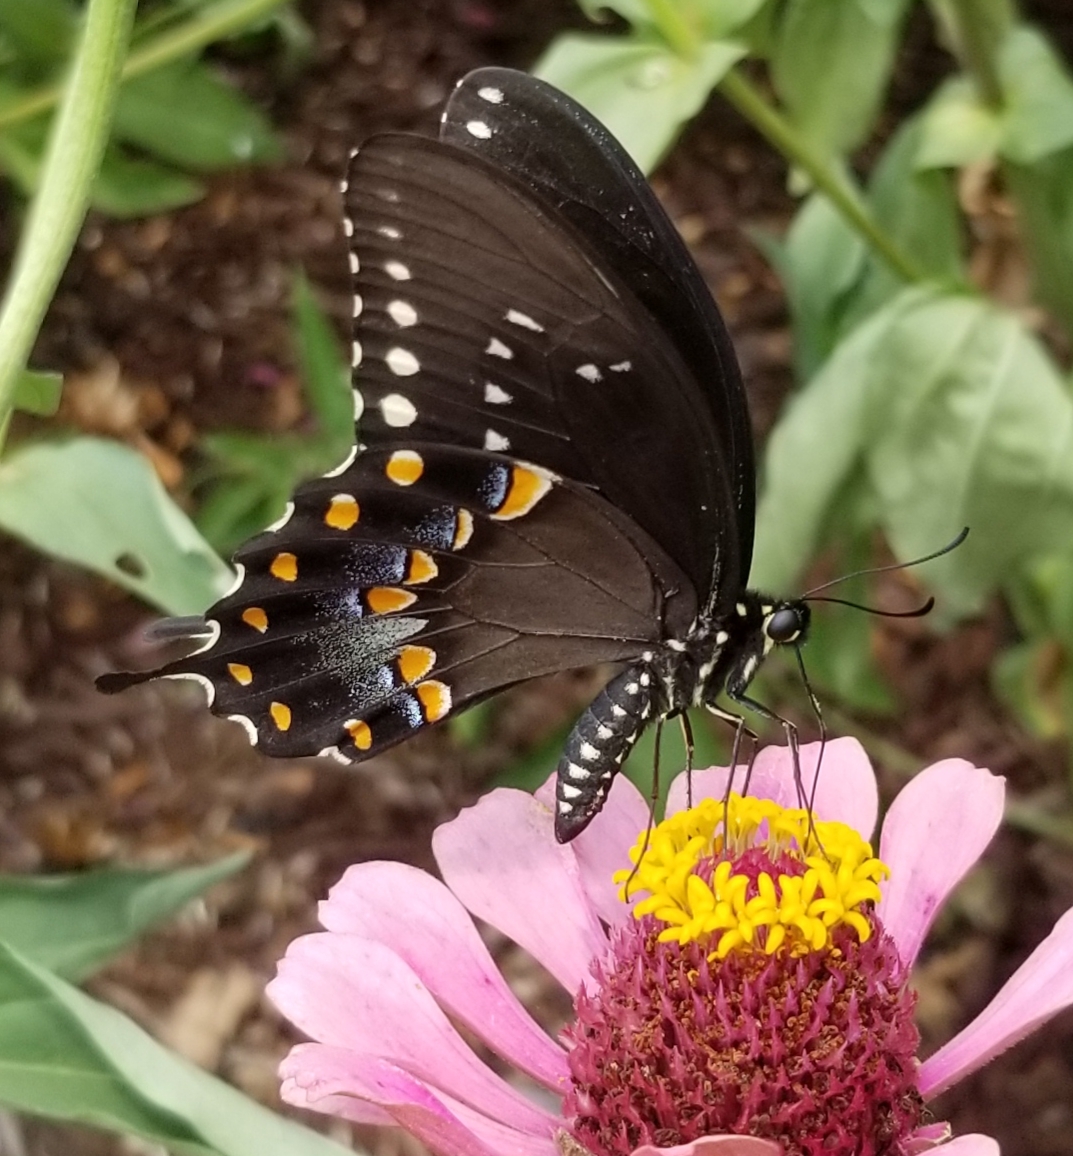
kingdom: Animalia
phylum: Arthropoda
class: Insecta
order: Lepidoptera
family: Papilionidae
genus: Papilio
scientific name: Papilio troilus
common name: Spicebush swallowtail
